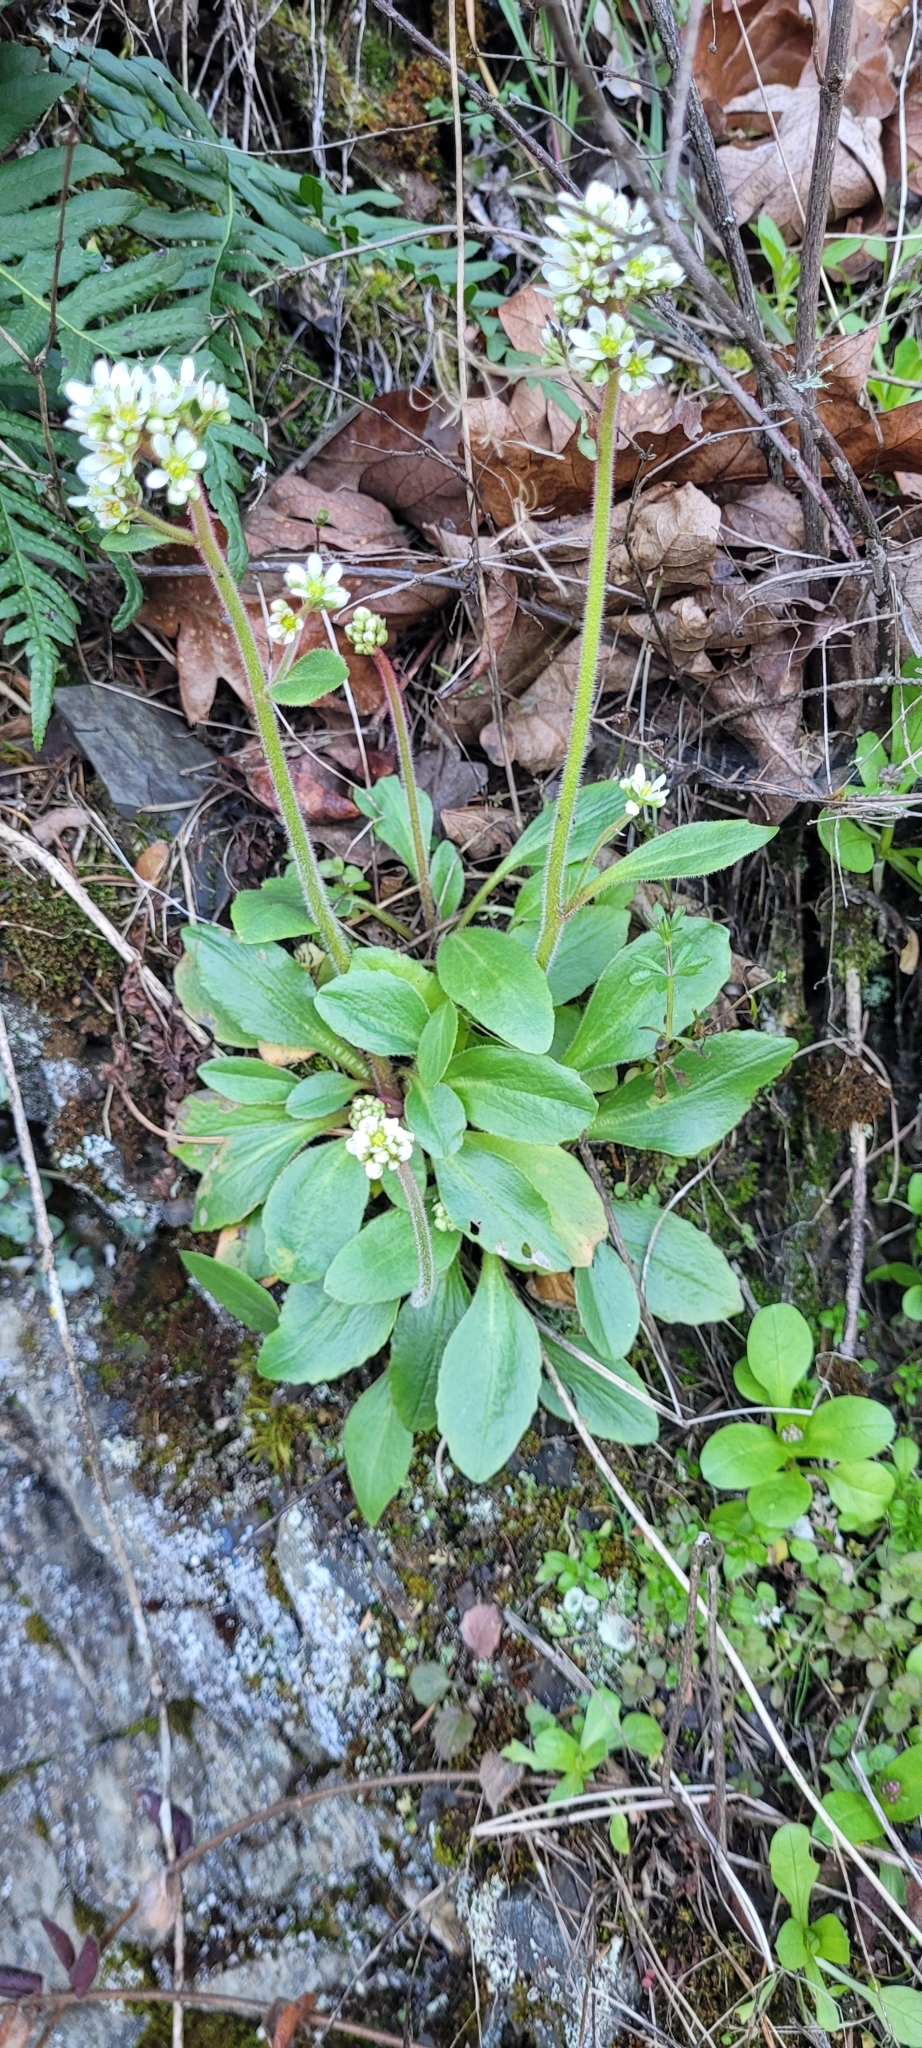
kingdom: Plantae
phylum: Tracheophyta
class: Magnoliopsida
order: Saxifragales
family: Saxifragaceae
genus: Micranthes
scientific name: Micranthes integrifolia
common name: Wholeleaf saxifrage
